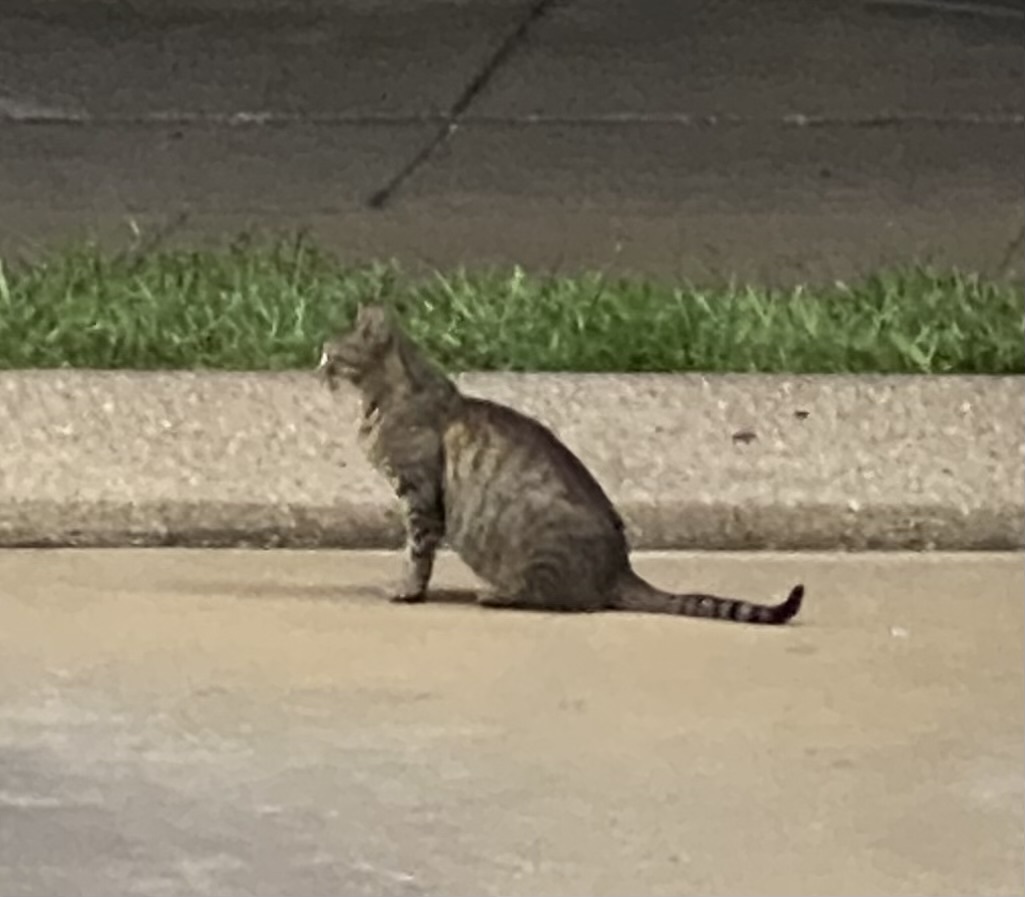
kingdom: Animalia
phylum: Chordata
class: Mammalia
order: Carnivora
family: Felidae
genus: Felis
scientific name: Felis catus
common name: Domestic cat
